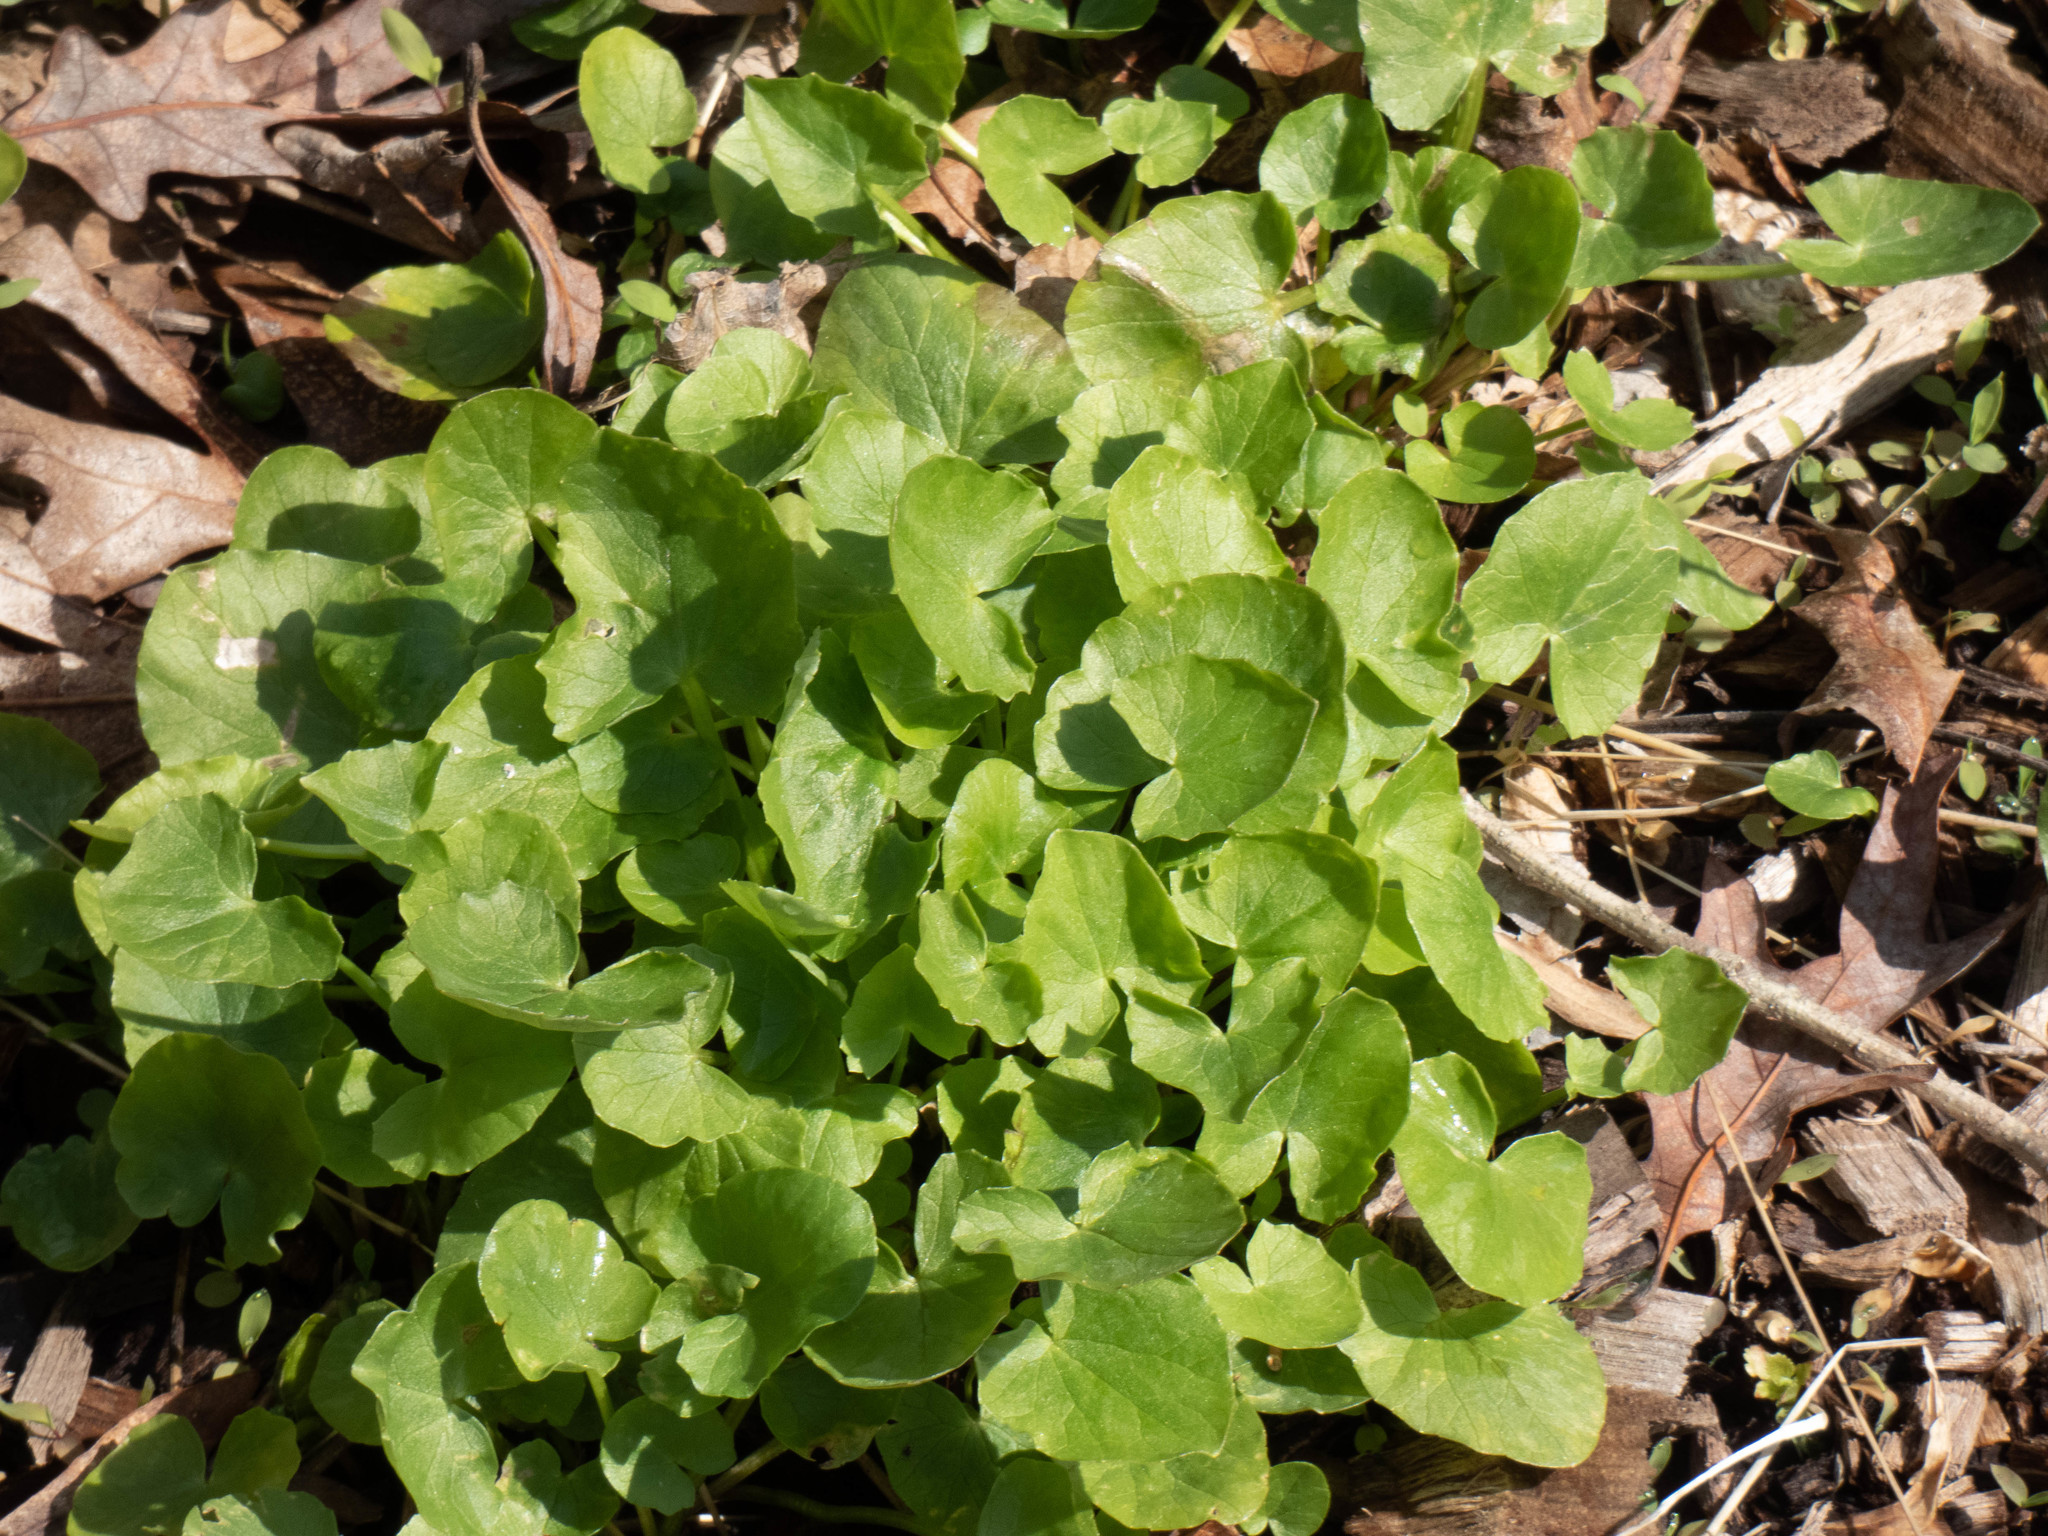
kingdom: Plantae
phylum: Tracheophyta
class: Magnoliopsida
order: Ranunculales
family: Ranunculaceae
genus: Ficaria
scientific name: Ficaria verna
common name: Lesser celandine
